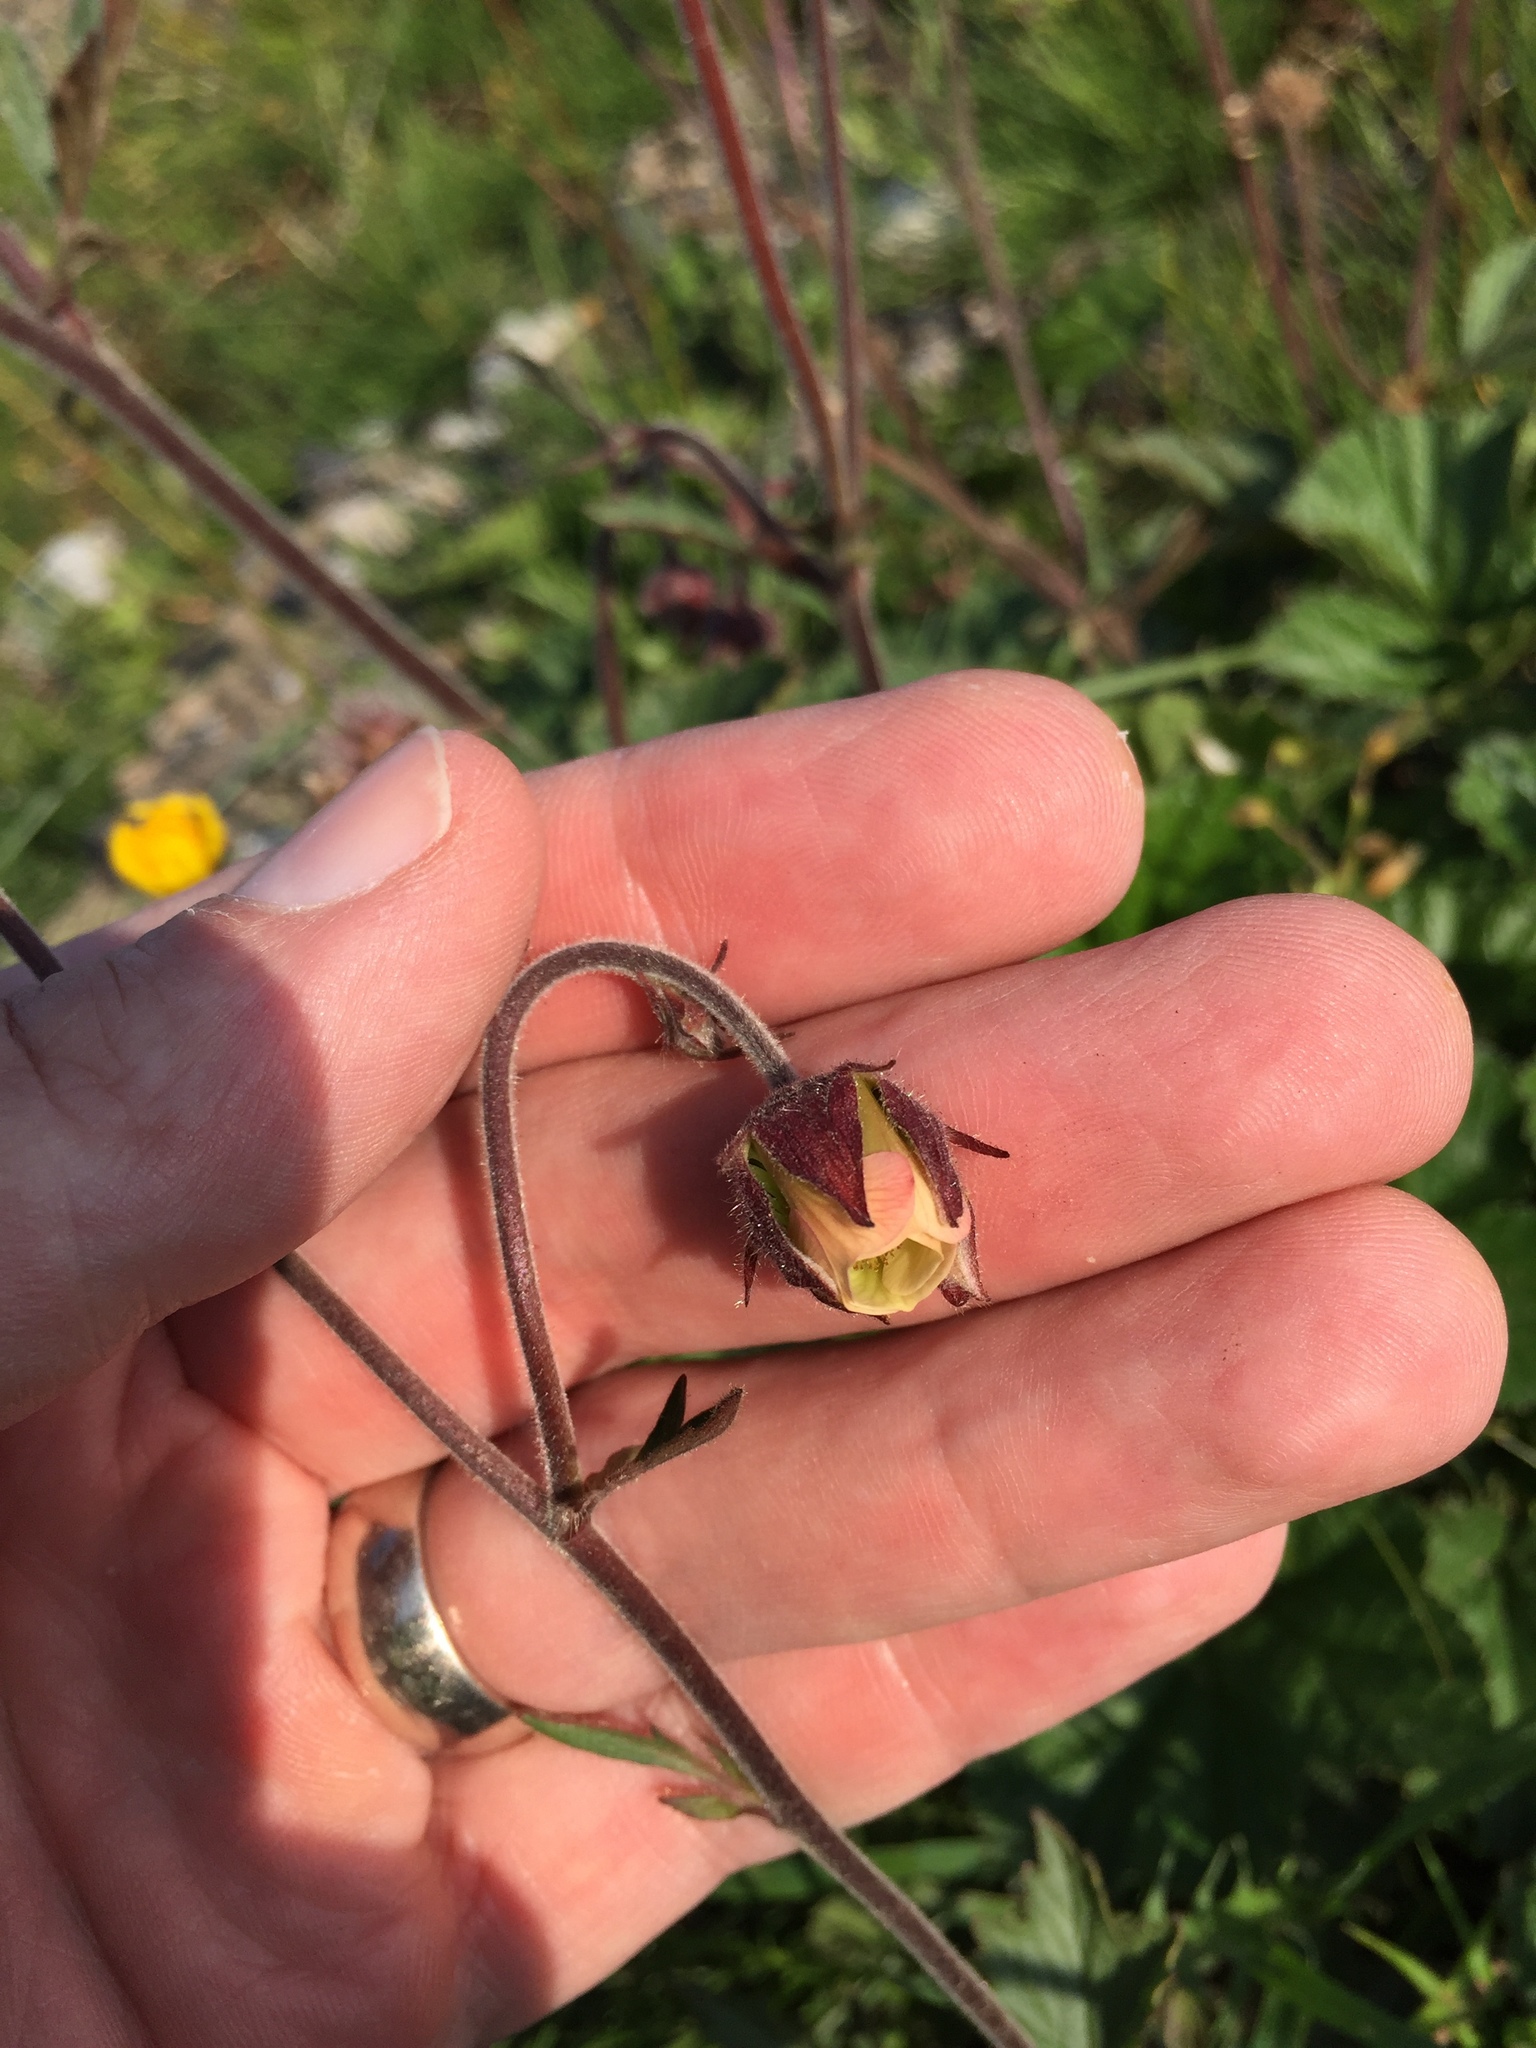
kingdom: Plantae
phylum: Tracheophyta
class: Magnoliopsida
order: Rosales
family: Rosaceae
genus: Geum
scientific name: Geum rivale
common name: Water avens
